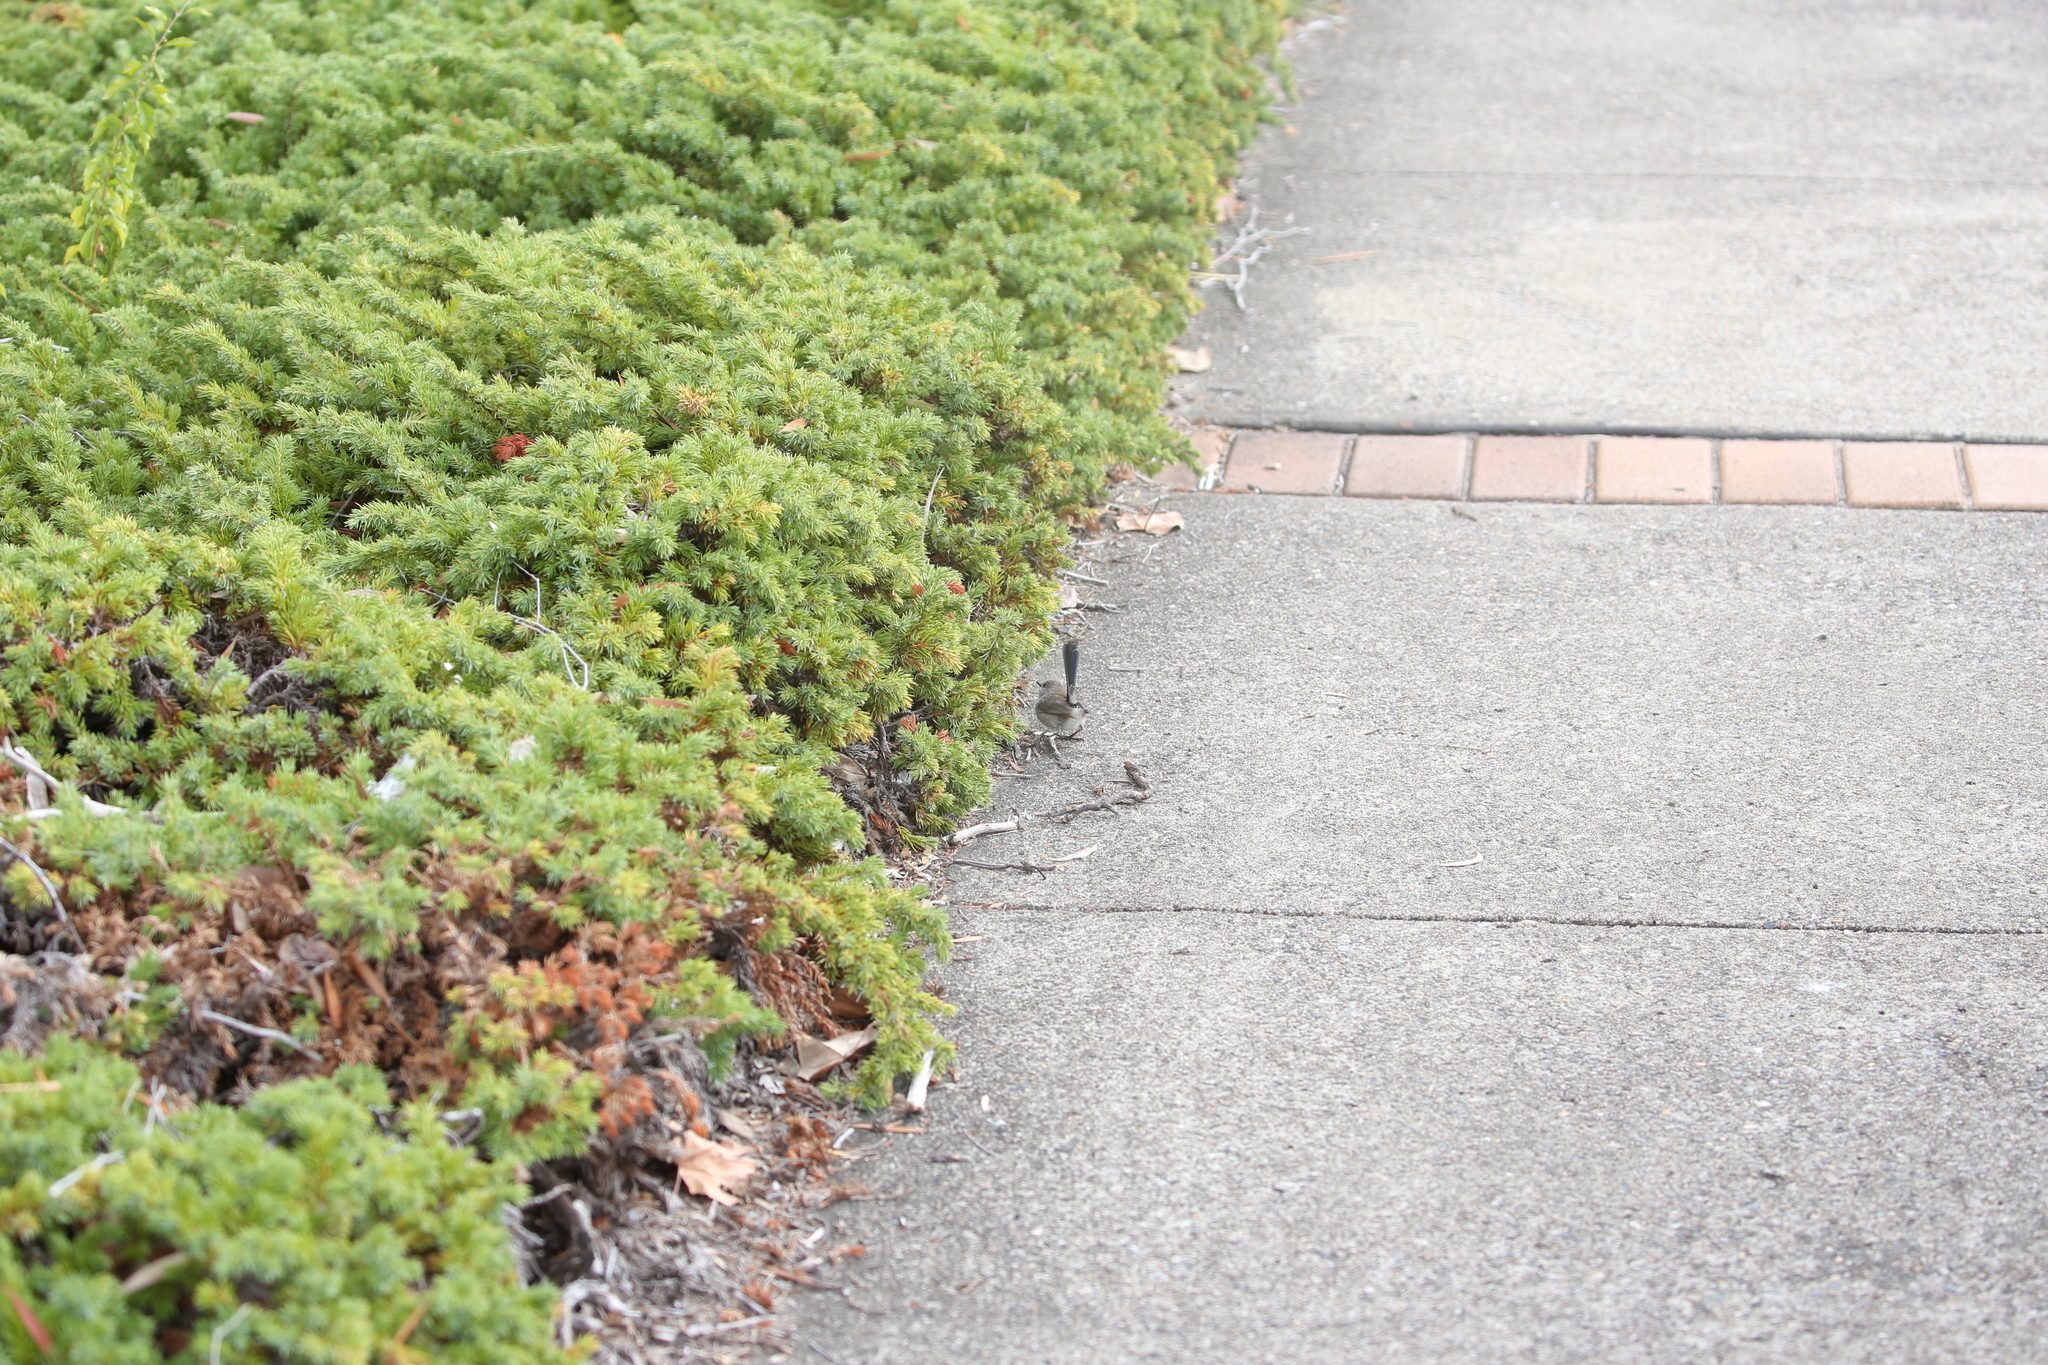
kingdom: Animalia
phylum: Chordata
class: Aves
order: Passeriformes
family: Maluridae
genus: Malurus
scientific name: Malurus cyaneus
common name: Superb fairywren
